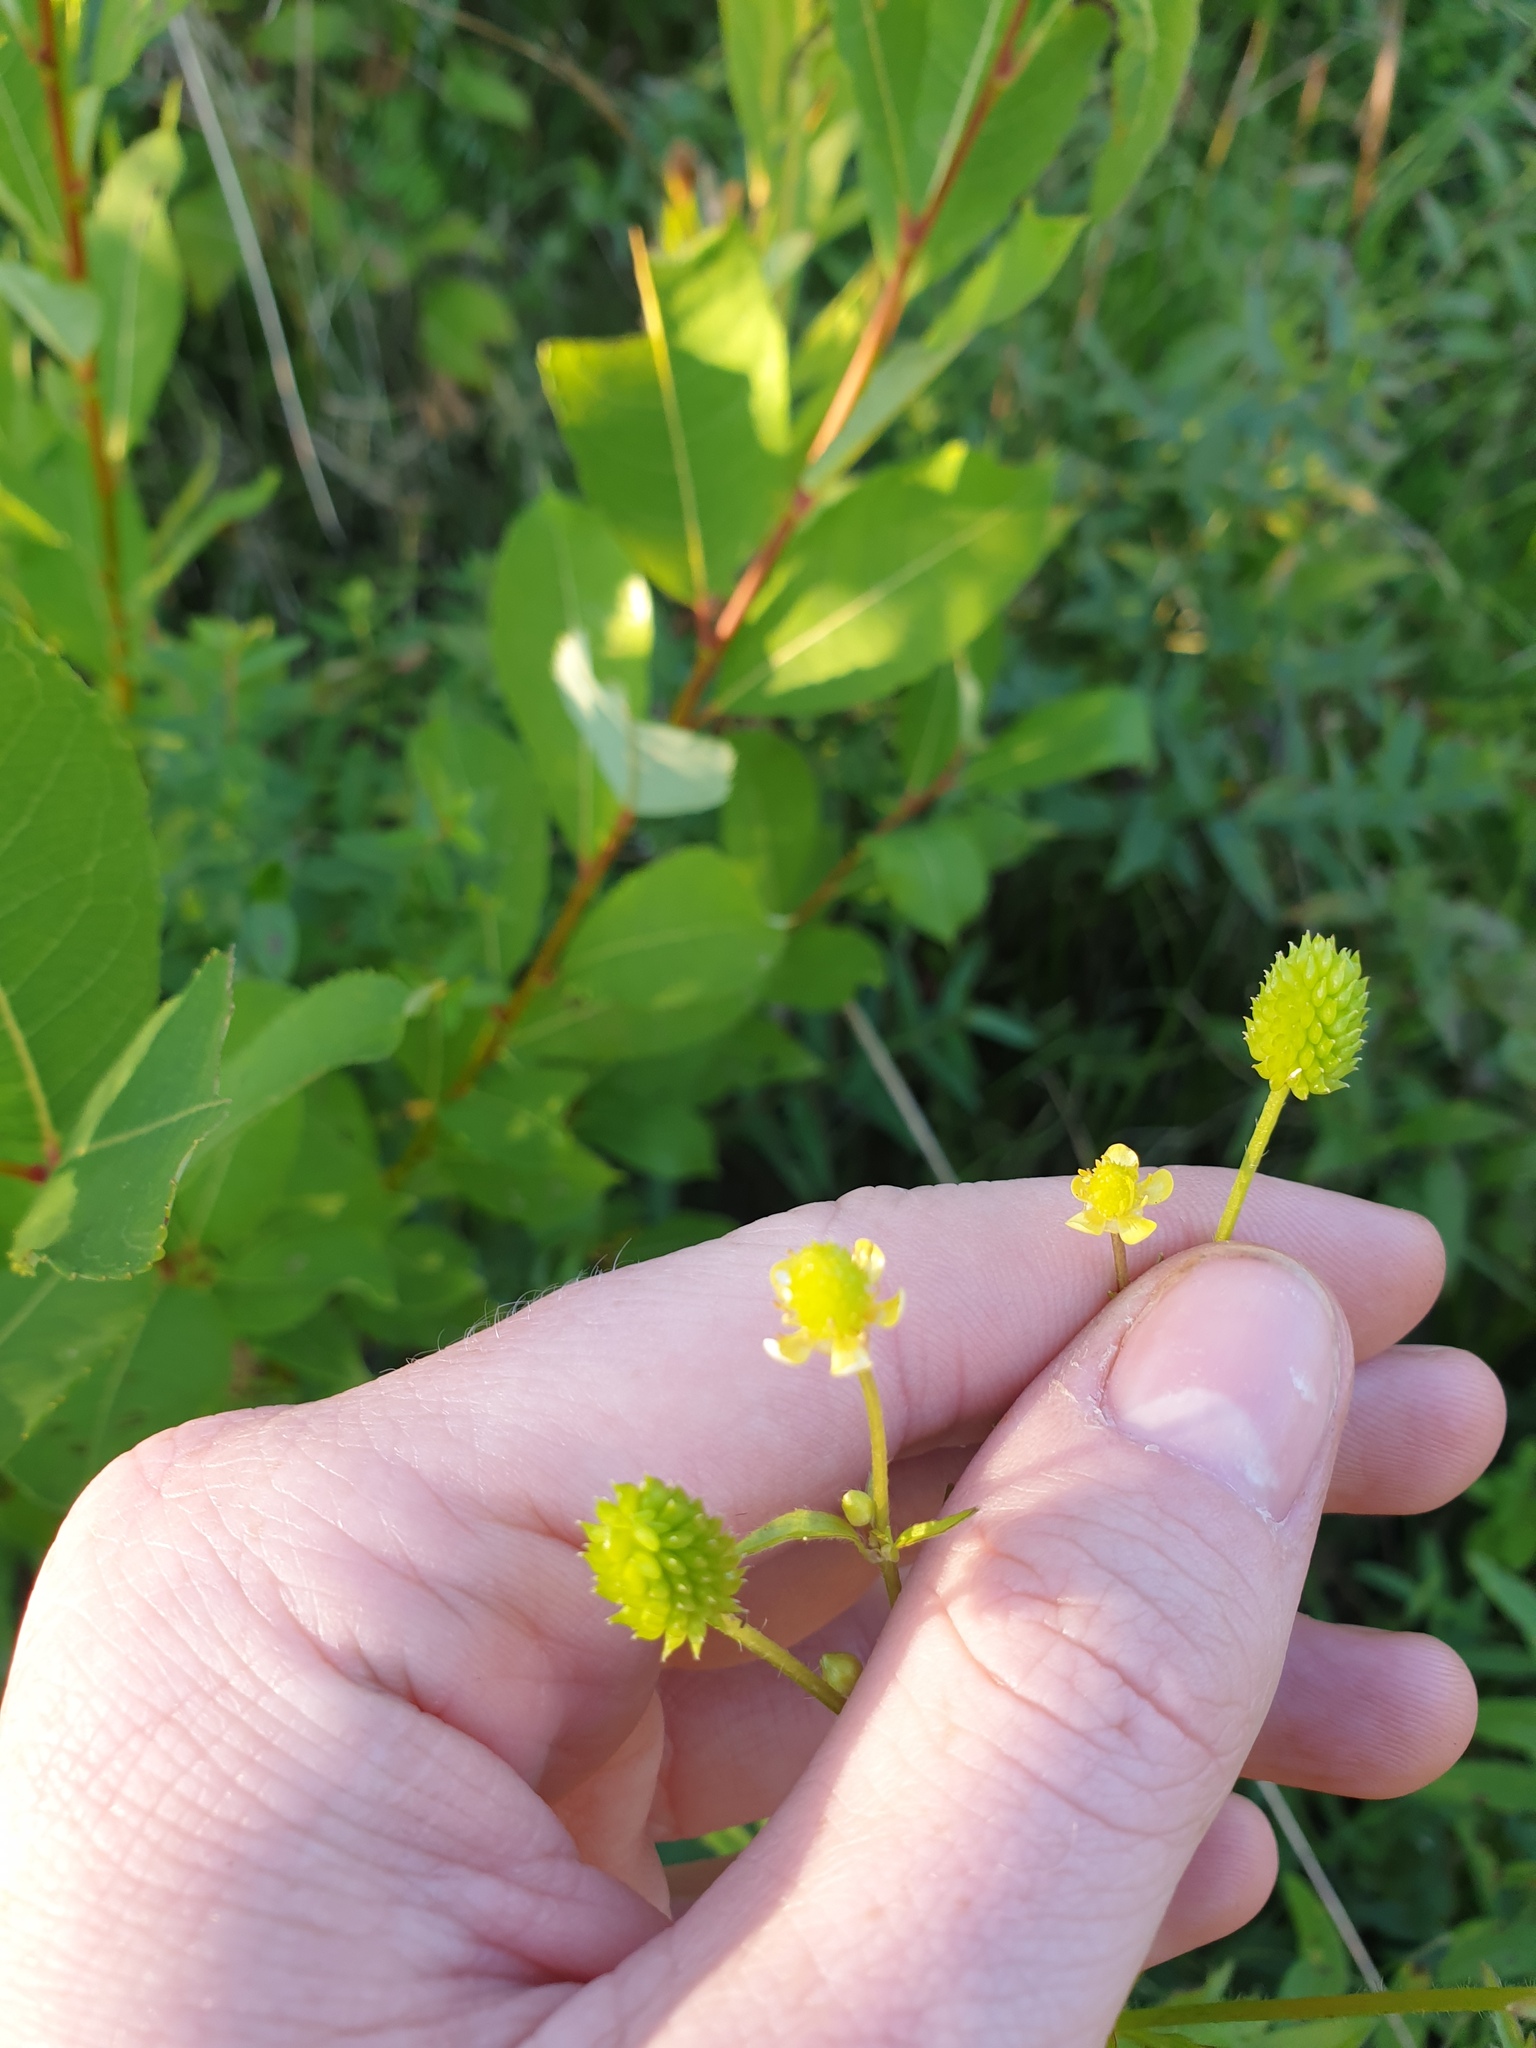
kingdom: Plantae
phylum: Tracheophyta
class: Magnoliopsida
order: Ranunculales
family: Ranunculaceae
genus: Ranunculus
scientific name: Ranunculus pensylvanicus
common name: Bristly buttercup
